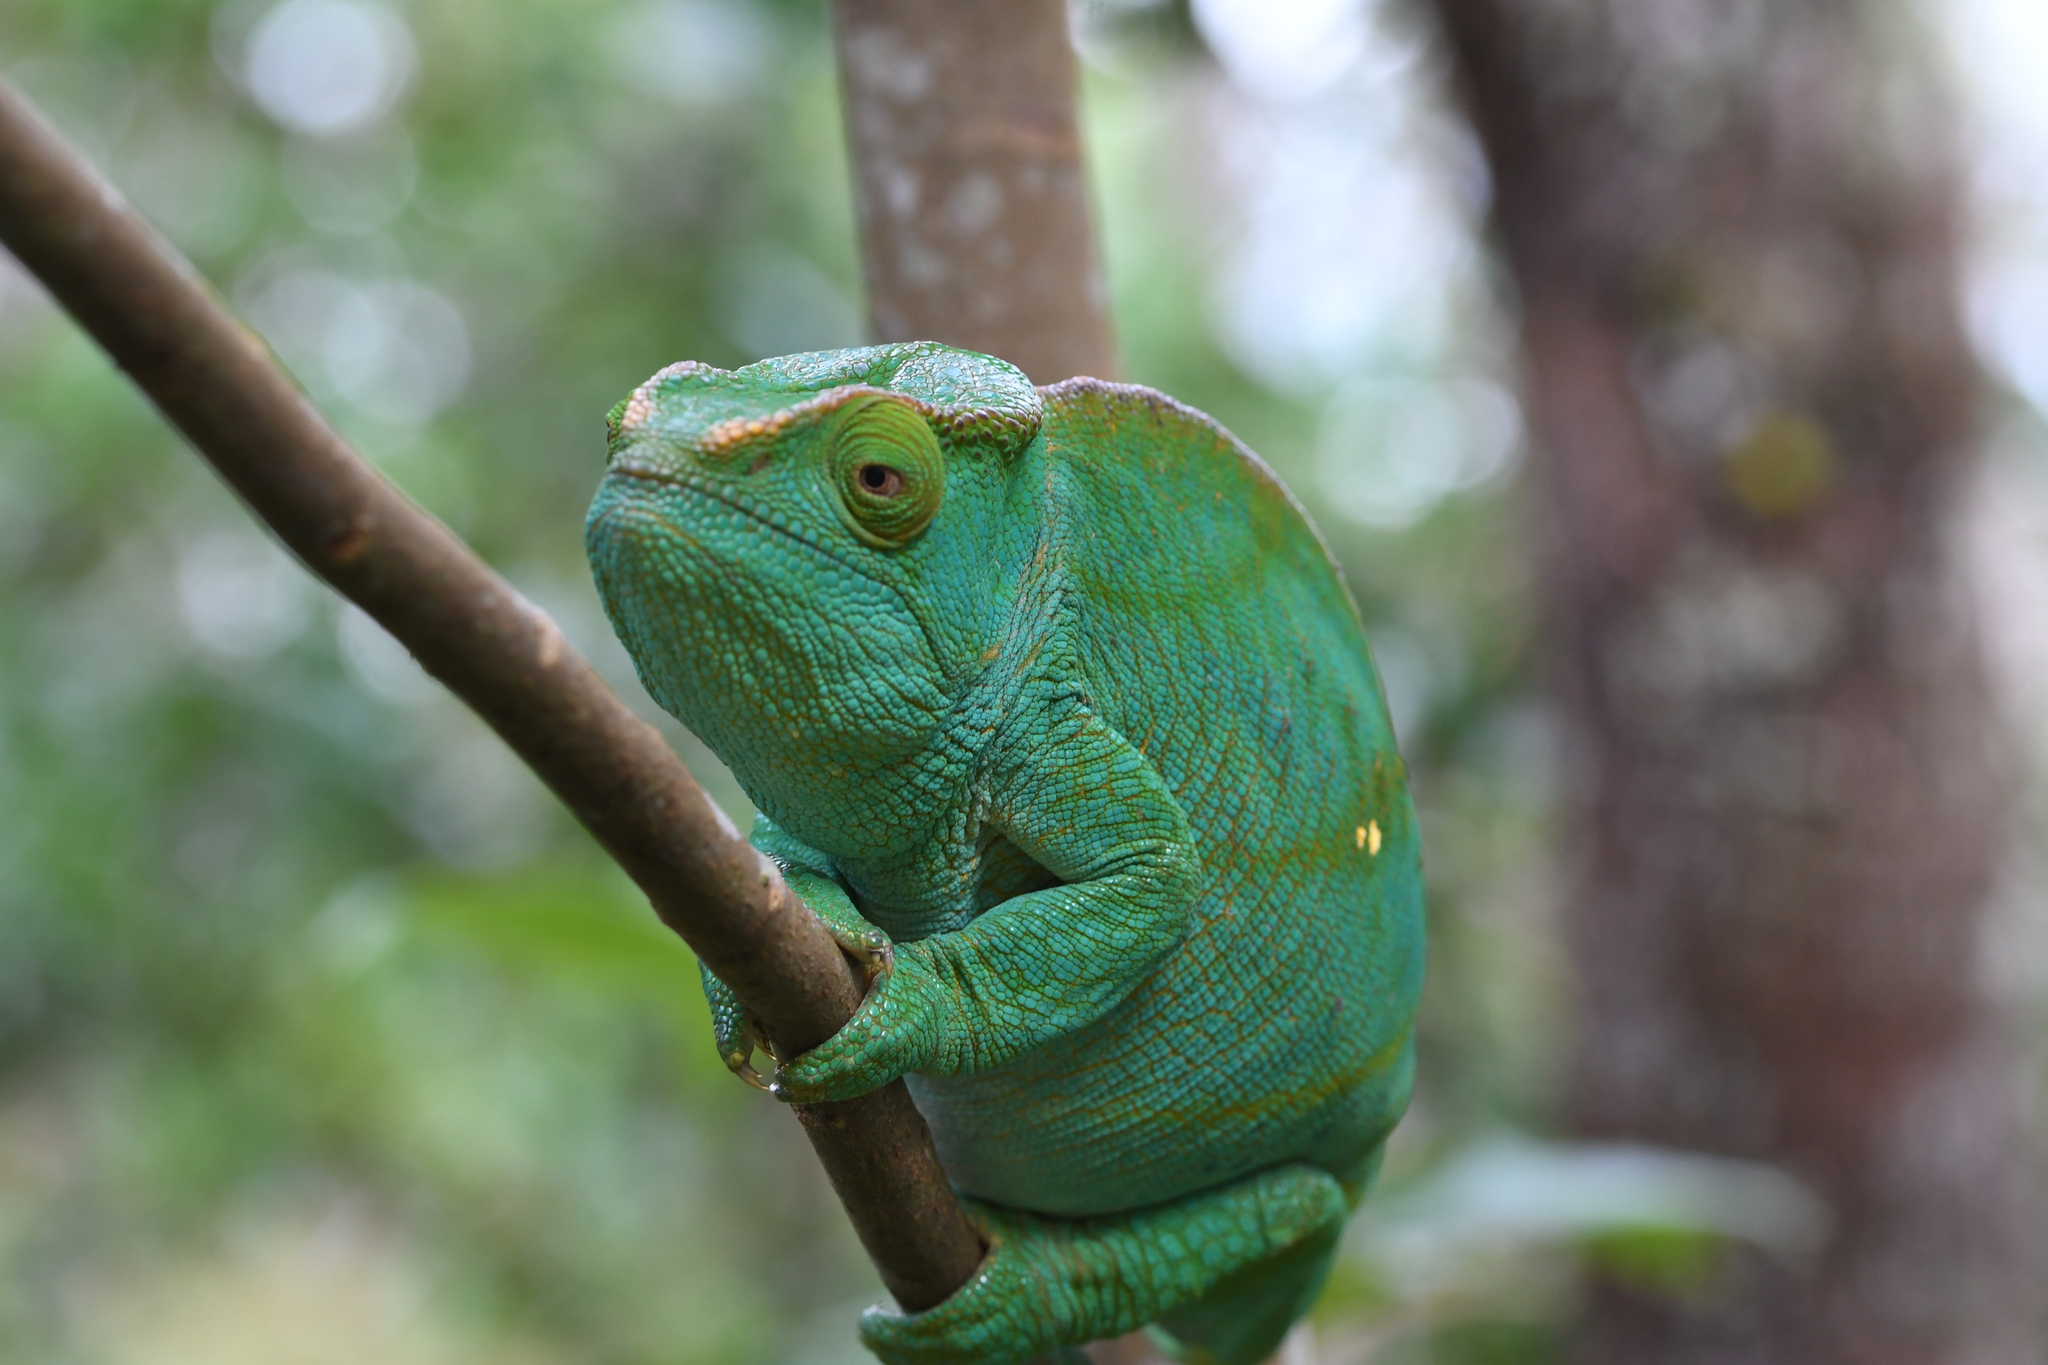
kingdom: Animalia
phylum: Chordata
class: Squamata
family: Chamaeleonidae
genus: Calumma
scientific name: Calumma parsonii
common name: Parson's chameleon
